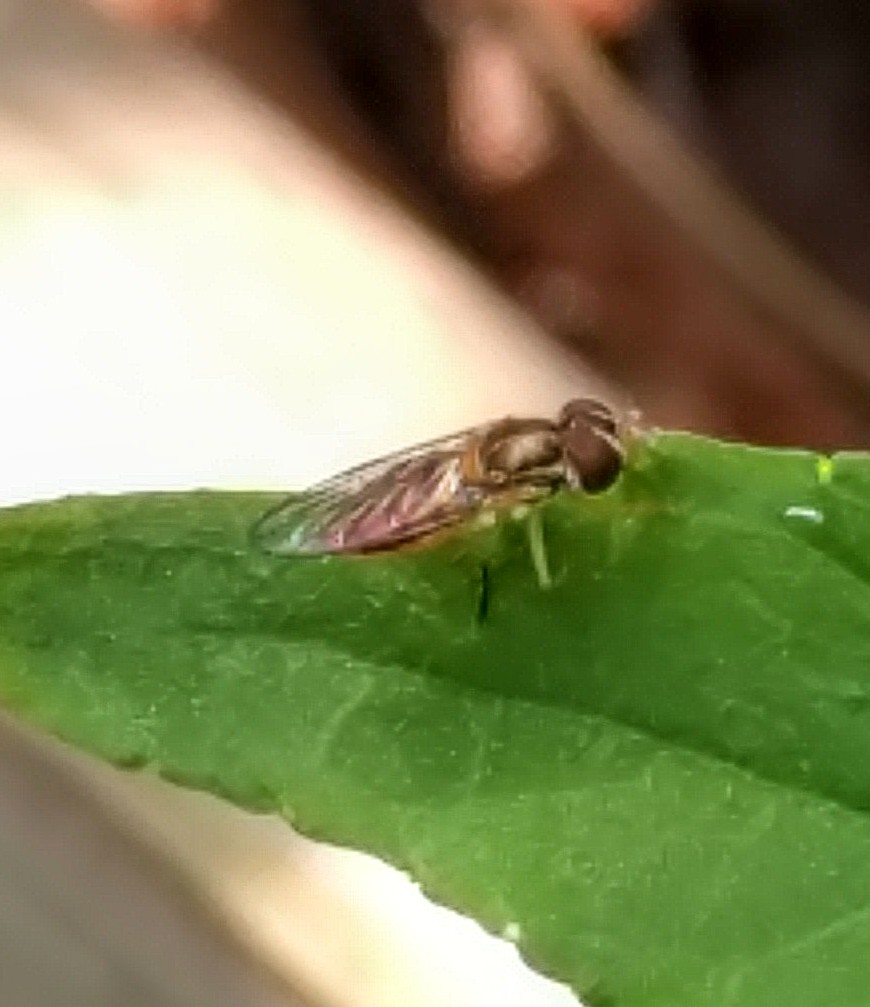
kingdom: Animalia
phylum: Arthropoda
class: Insecta
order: Diptera
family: Syrphidae
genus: Toxomerus
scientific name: Toxomerus marginatus
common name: Syrphid fly
